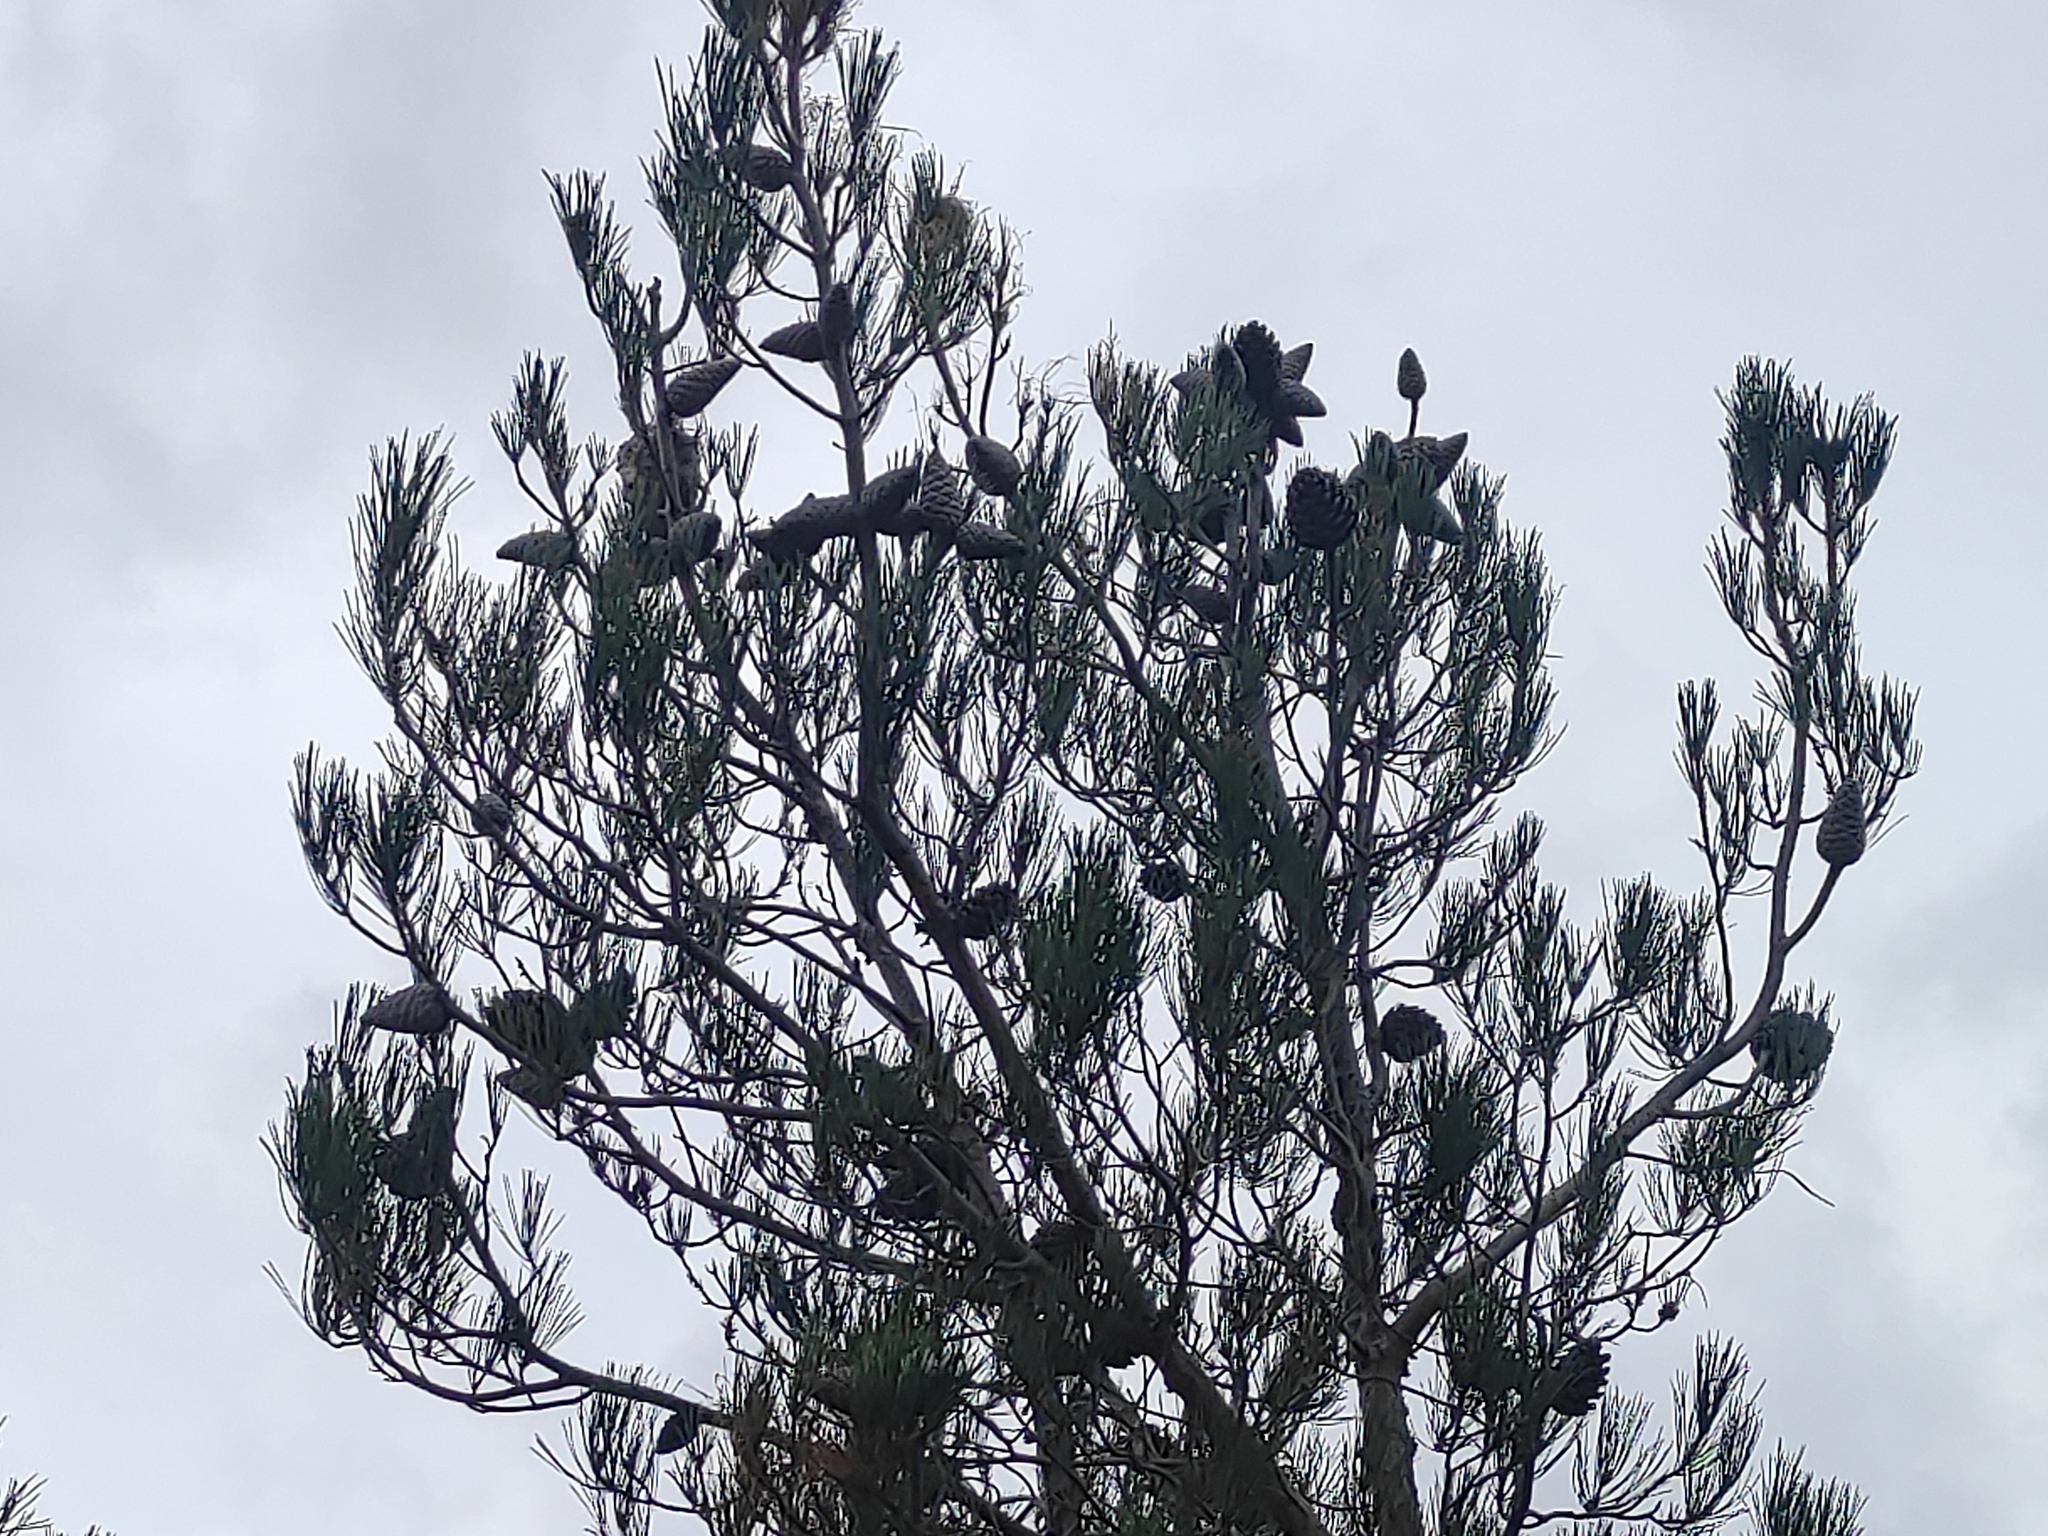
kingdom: Plantae
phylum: Tracheophyta
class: Pinopsida
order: Pinales
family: Pinaceae
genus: Pinus
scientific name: Pinus brutia
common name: Turkish pine
